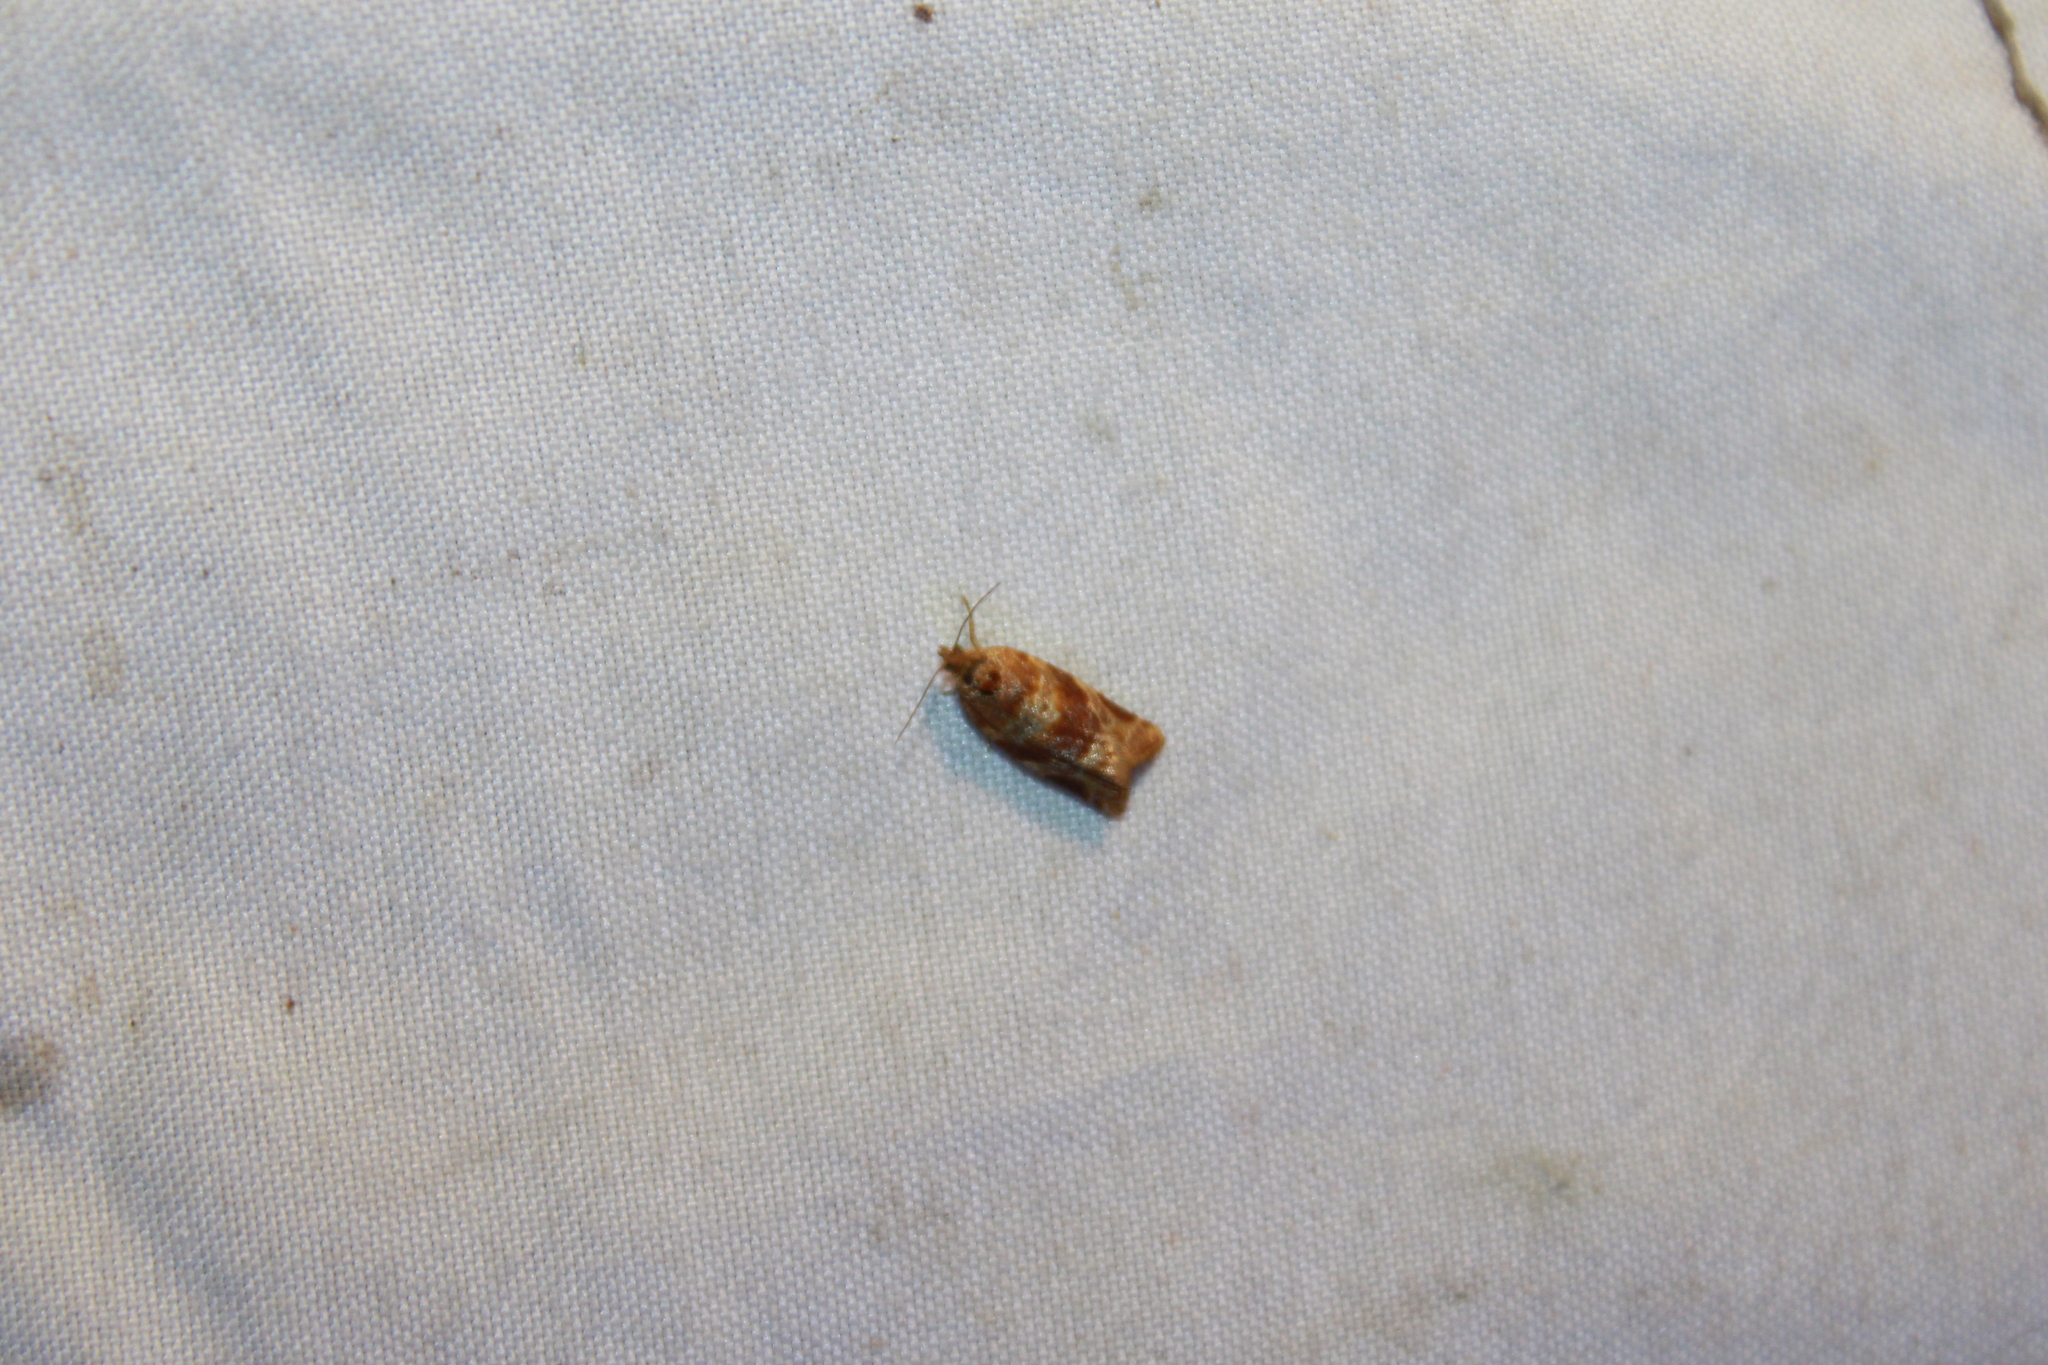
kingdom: Animalia
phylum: Arthropoda
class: Insecta
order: Lepidoptera
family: Tortricidae
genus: Argyrotaenia
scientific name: Argyrotaenia pinatubana
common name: Pine tube moth
